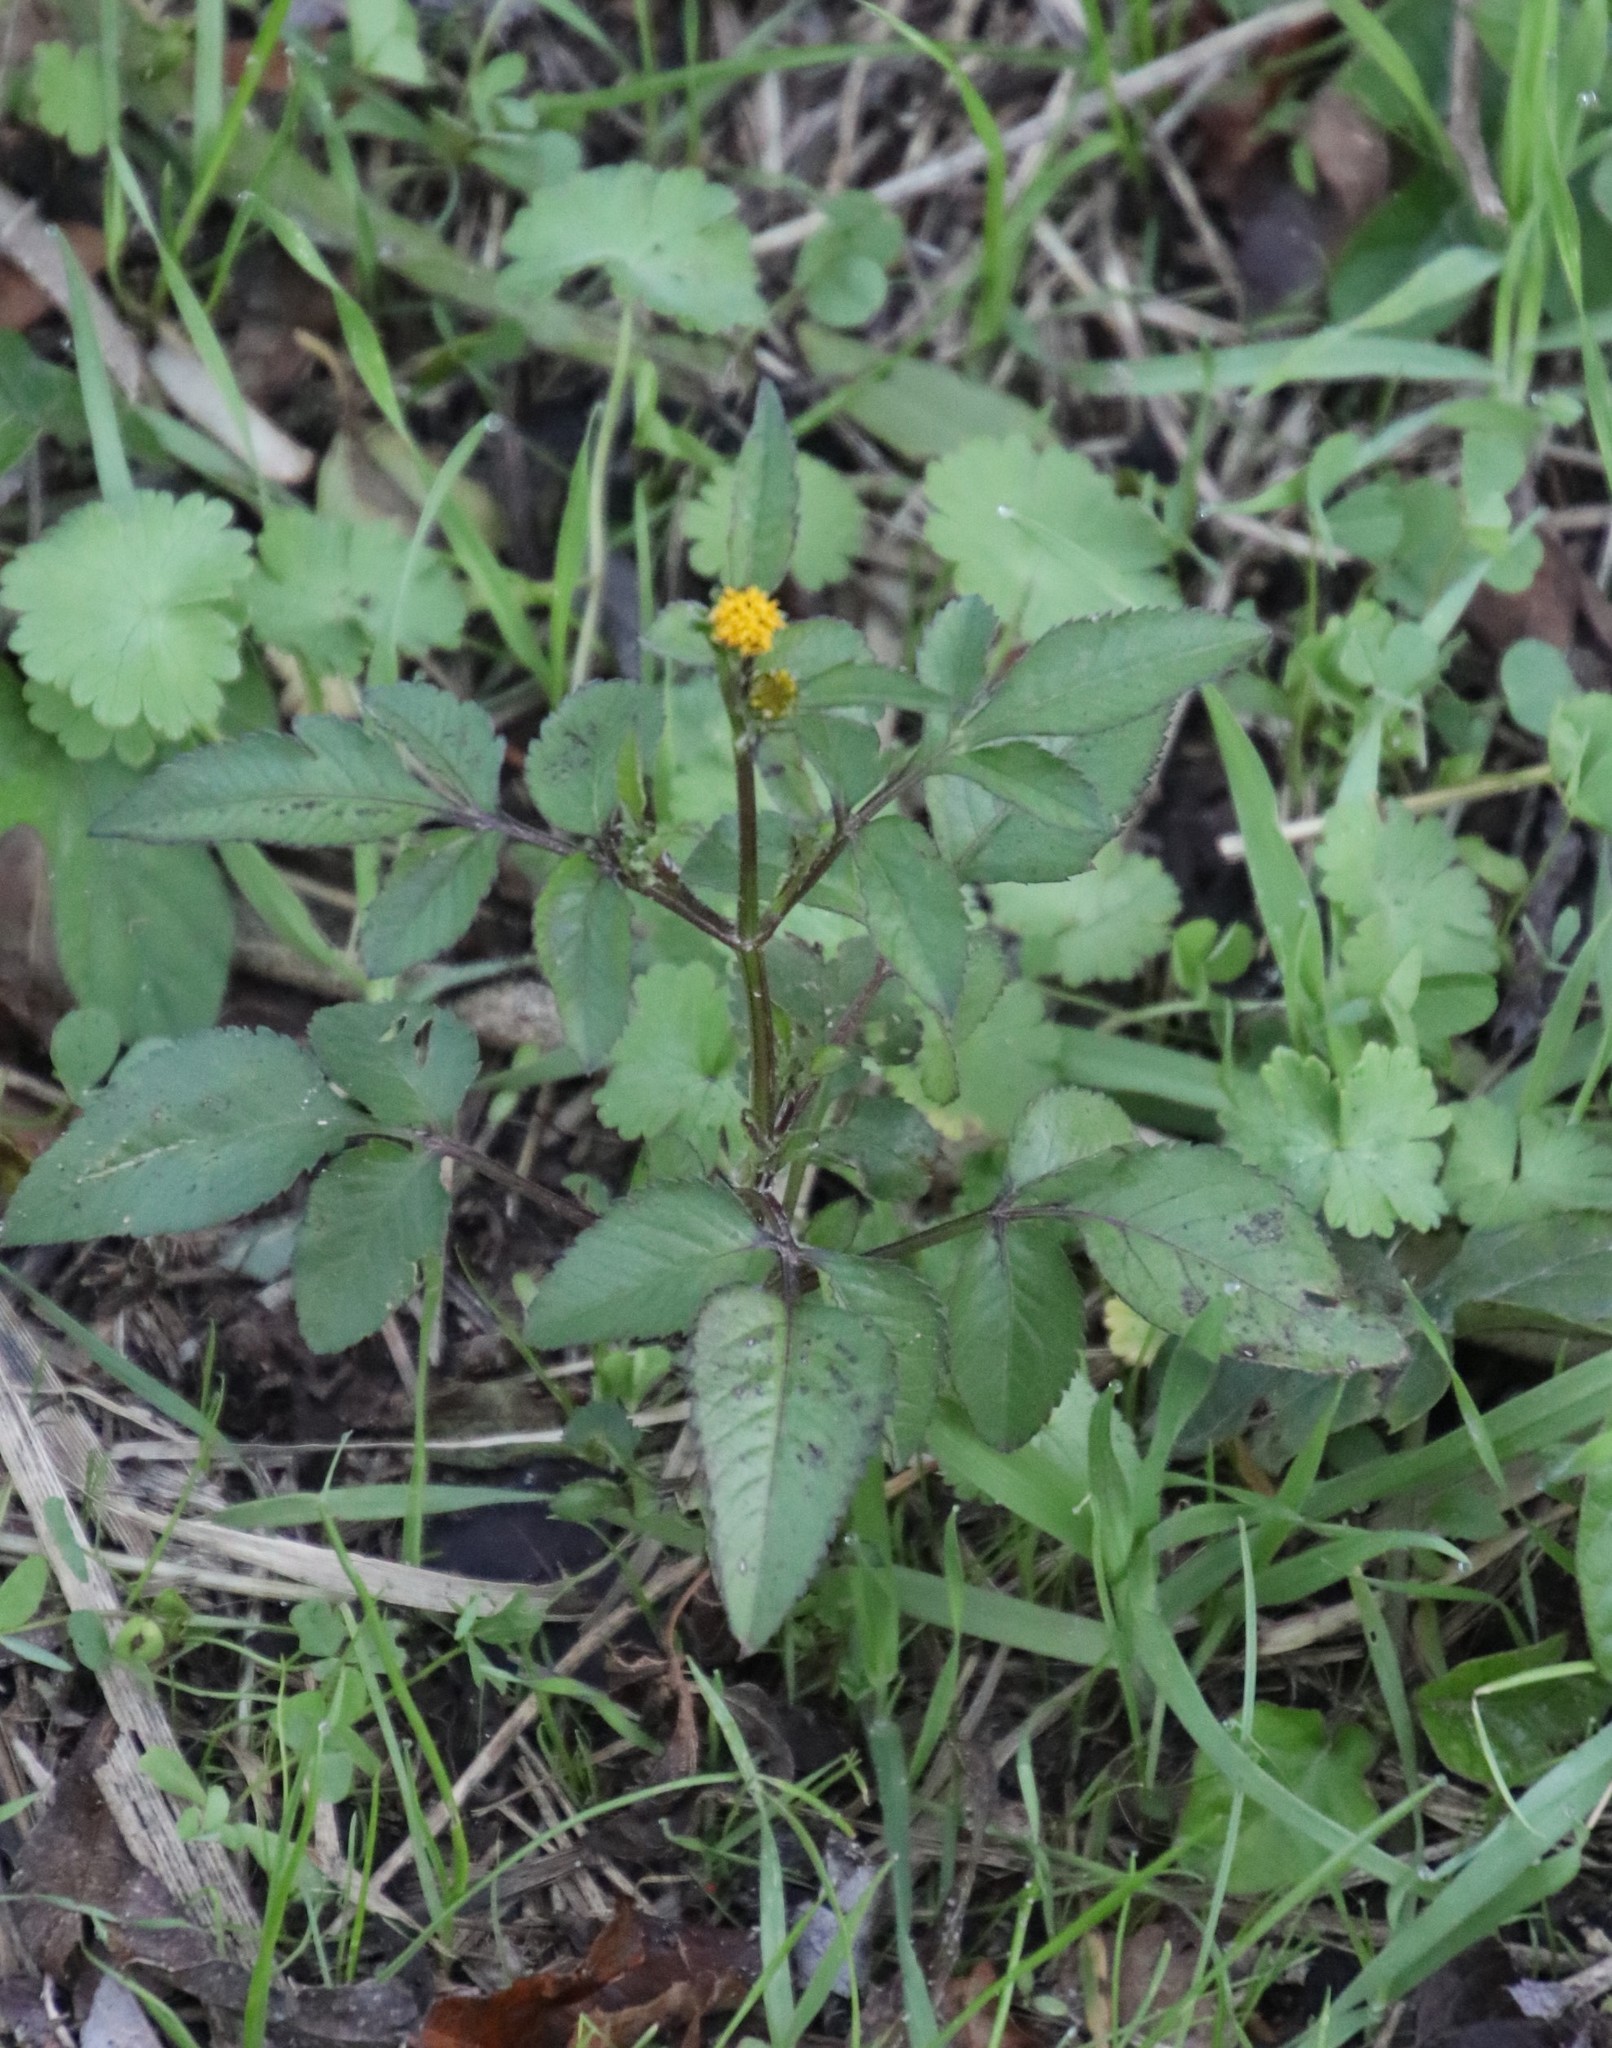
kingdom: Plantae
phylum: Tracheophyta
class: Magnoliopsida
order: Asterales
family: Asteraceae
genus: Bidens
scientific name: Bidens pilosa
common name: Black-jack
